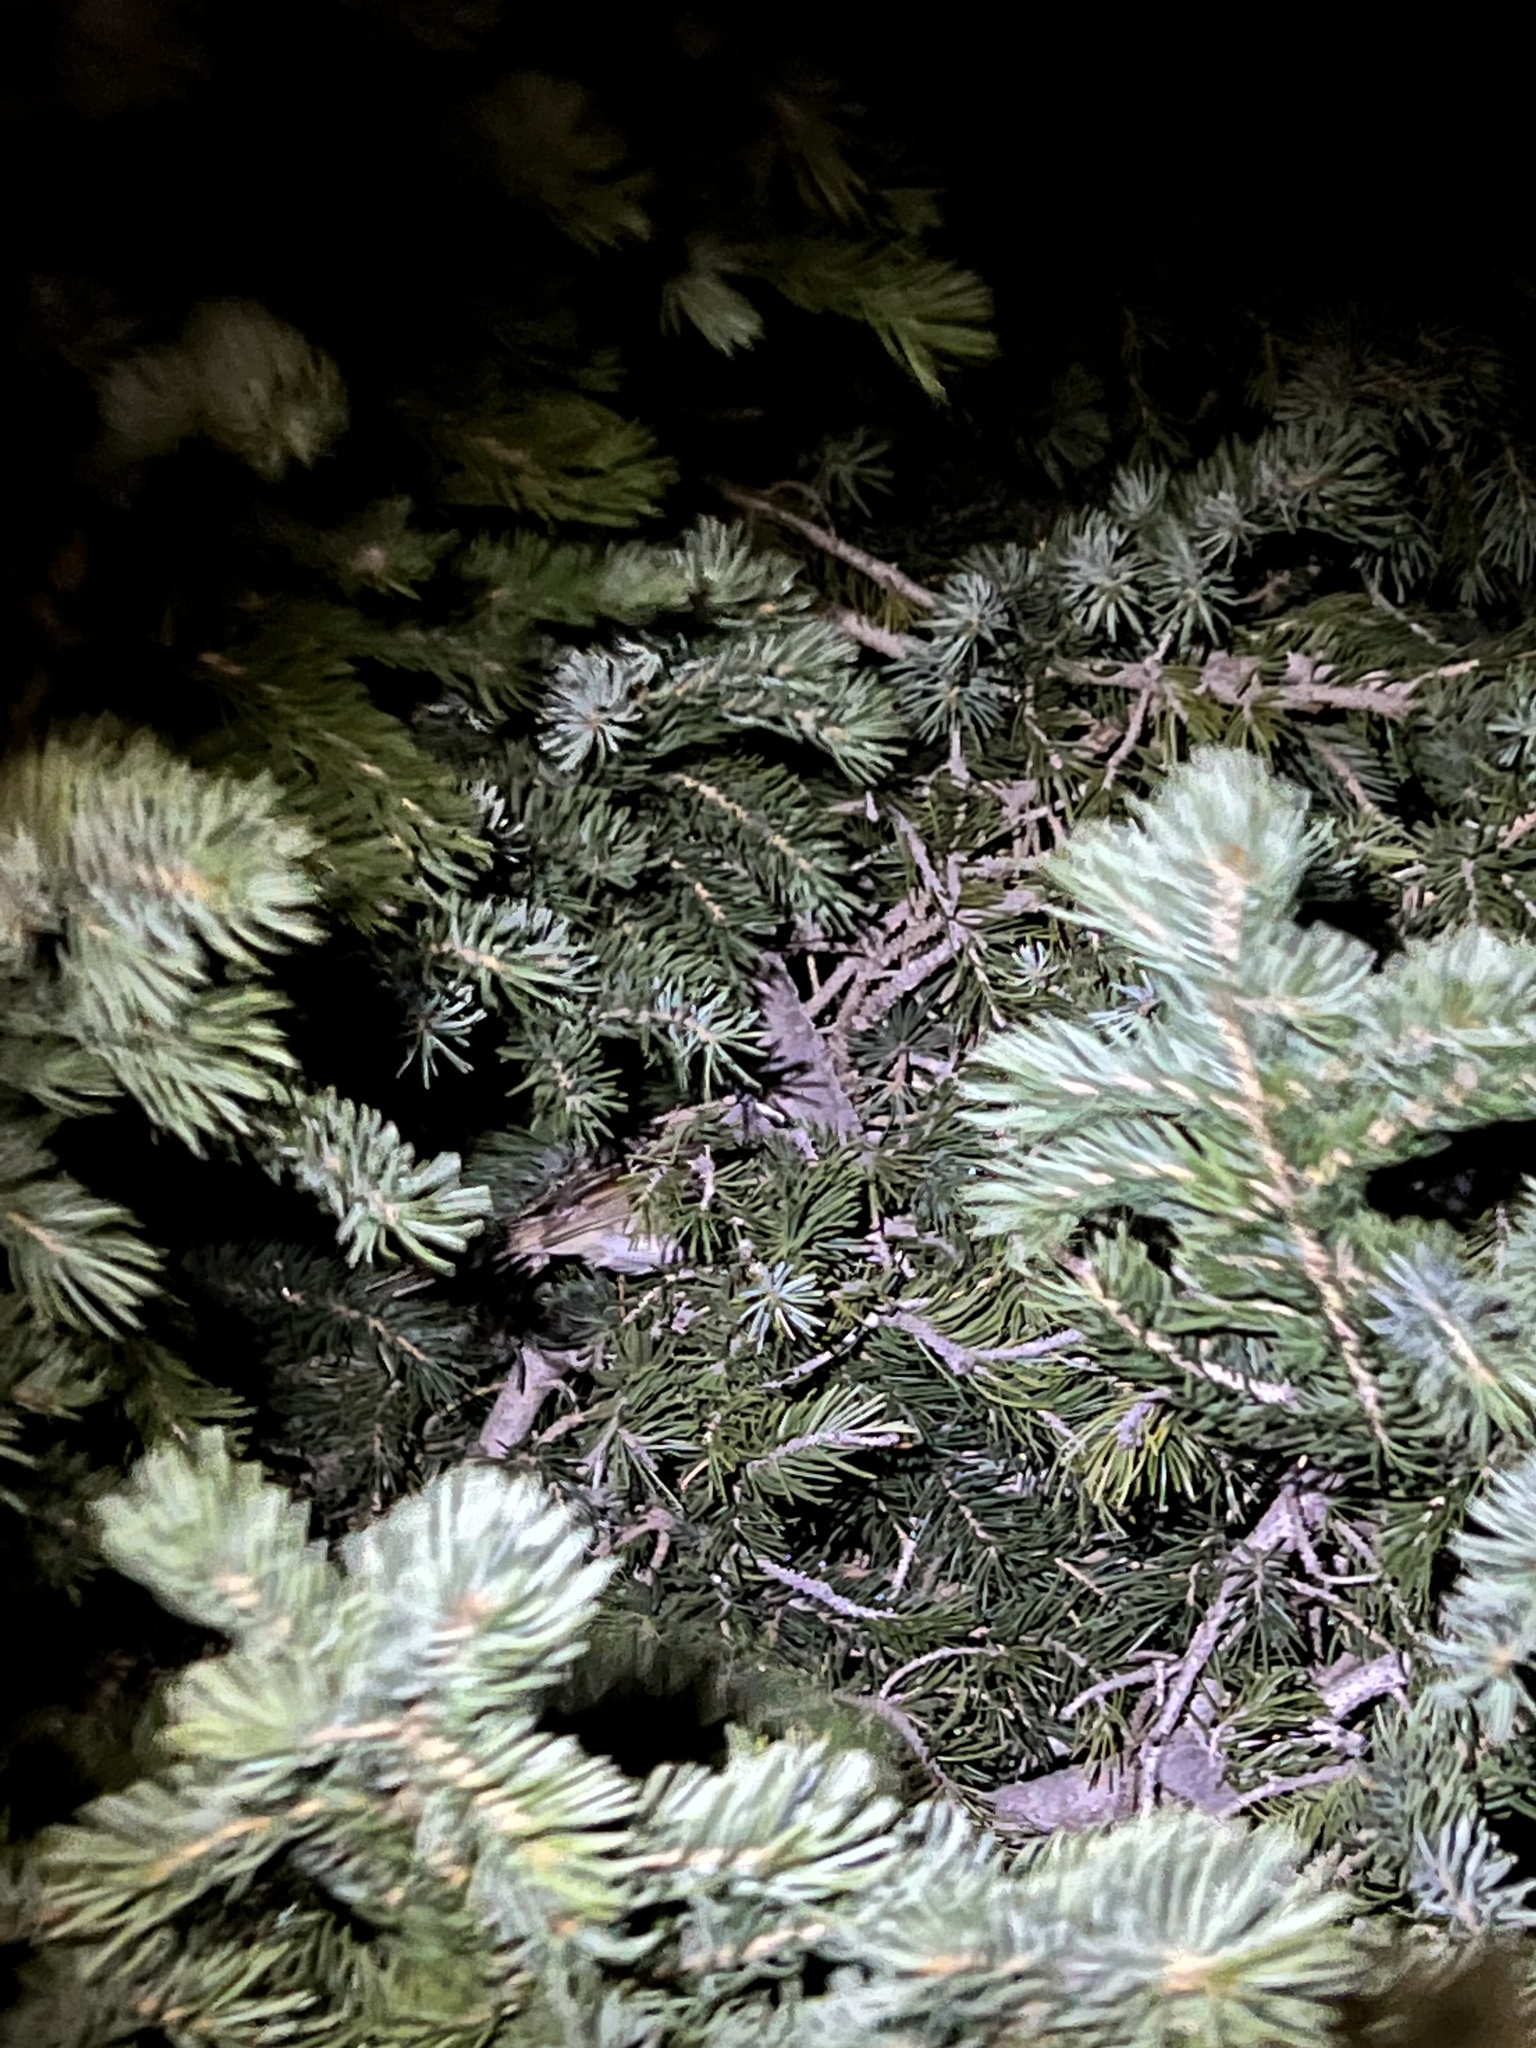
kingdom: Animalia
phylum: Chordata
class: Aves
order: Passeriformes
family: Passerellidae
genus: Zonotrichia
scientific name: Zonotrichia leucophrys
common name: White-crowned sparrow
